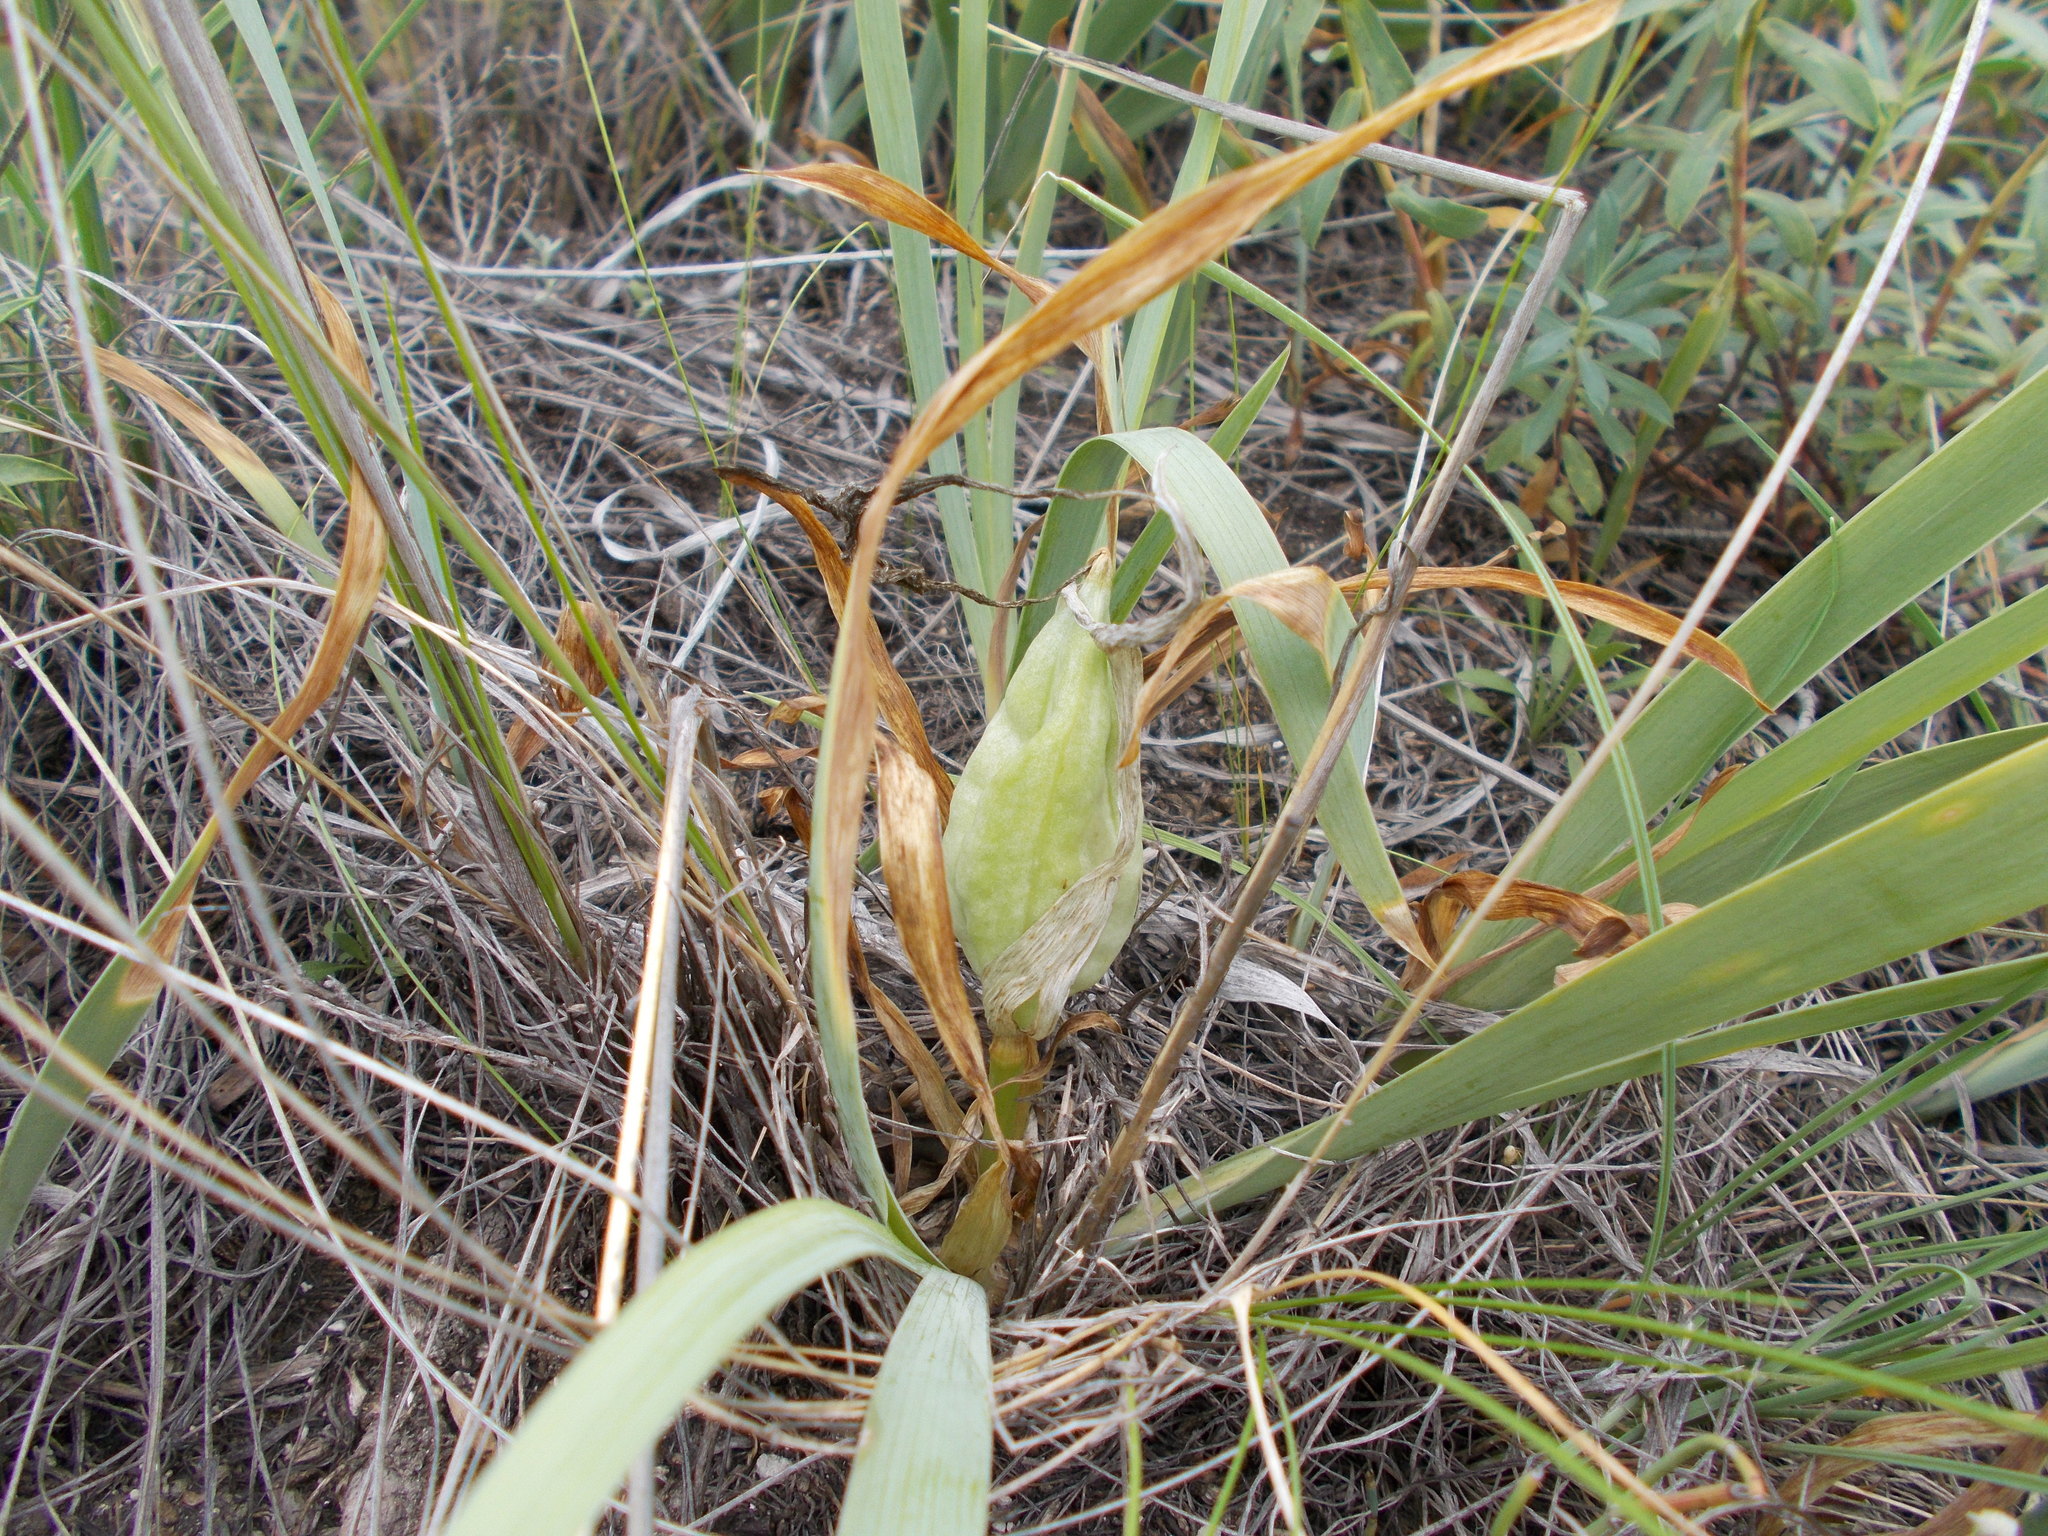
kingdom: Plantae
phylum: Tracheophyta
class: Liliopsida
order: Asparagales
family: Iridaceae
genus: Iris
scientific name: Iris pumila
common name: Dwarf iris
